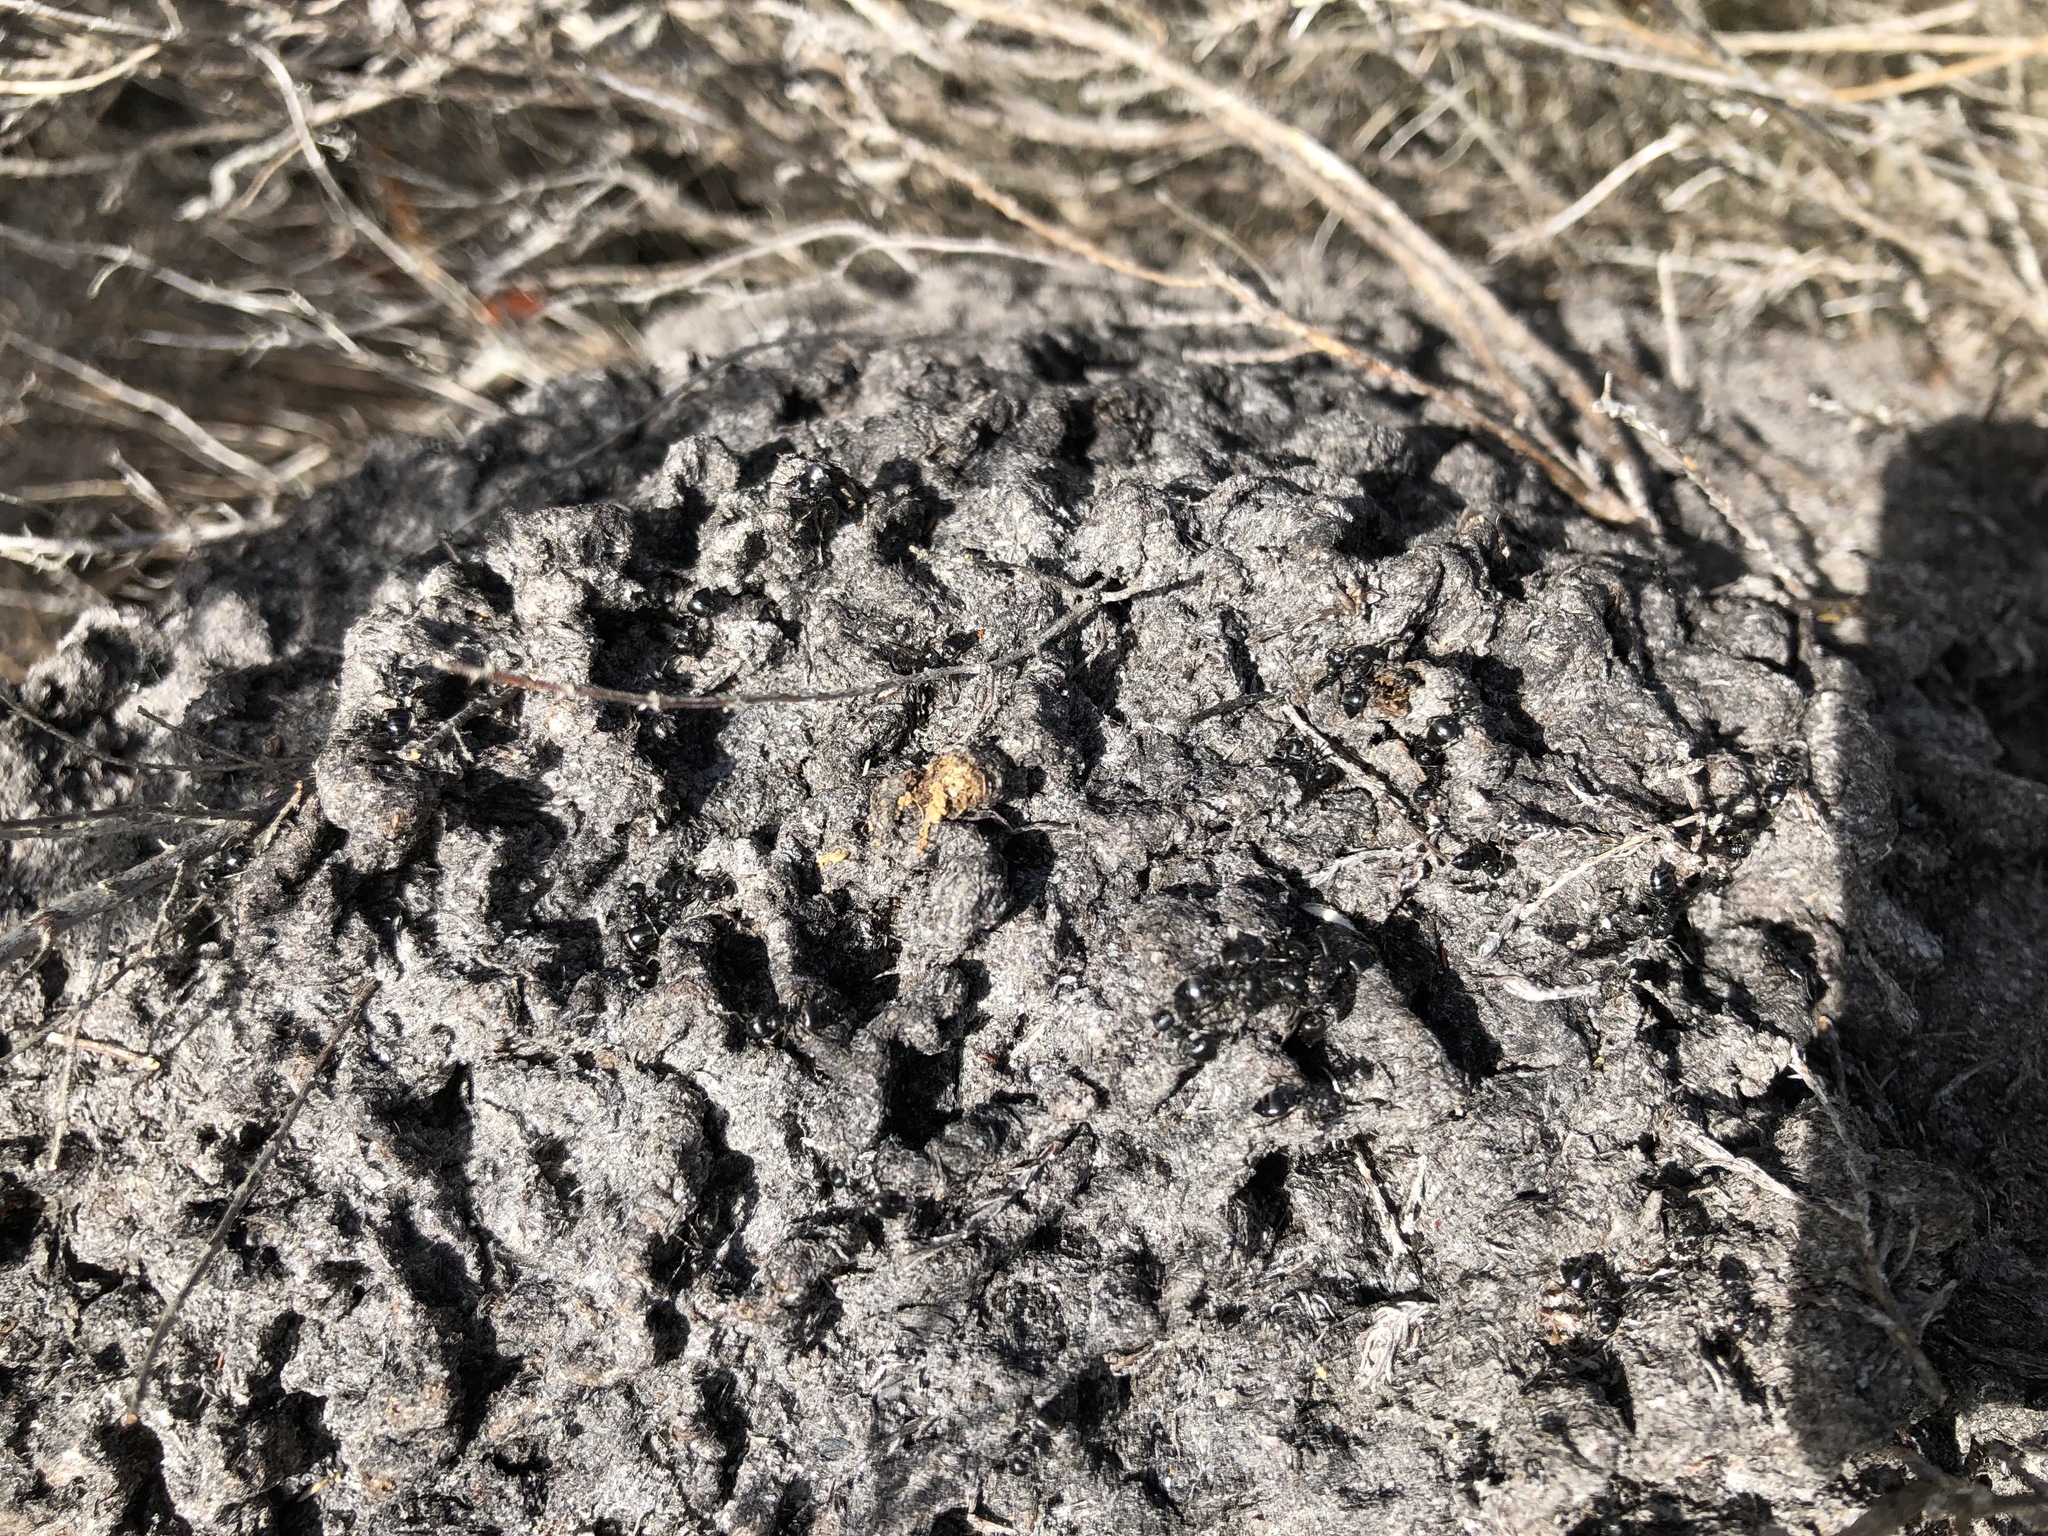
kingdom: Animalia
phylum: Arthropoda
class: Insecta
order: Hymenoptera
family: Formicidae
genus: Crematogaster
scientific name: Crematogaster peringueyi
